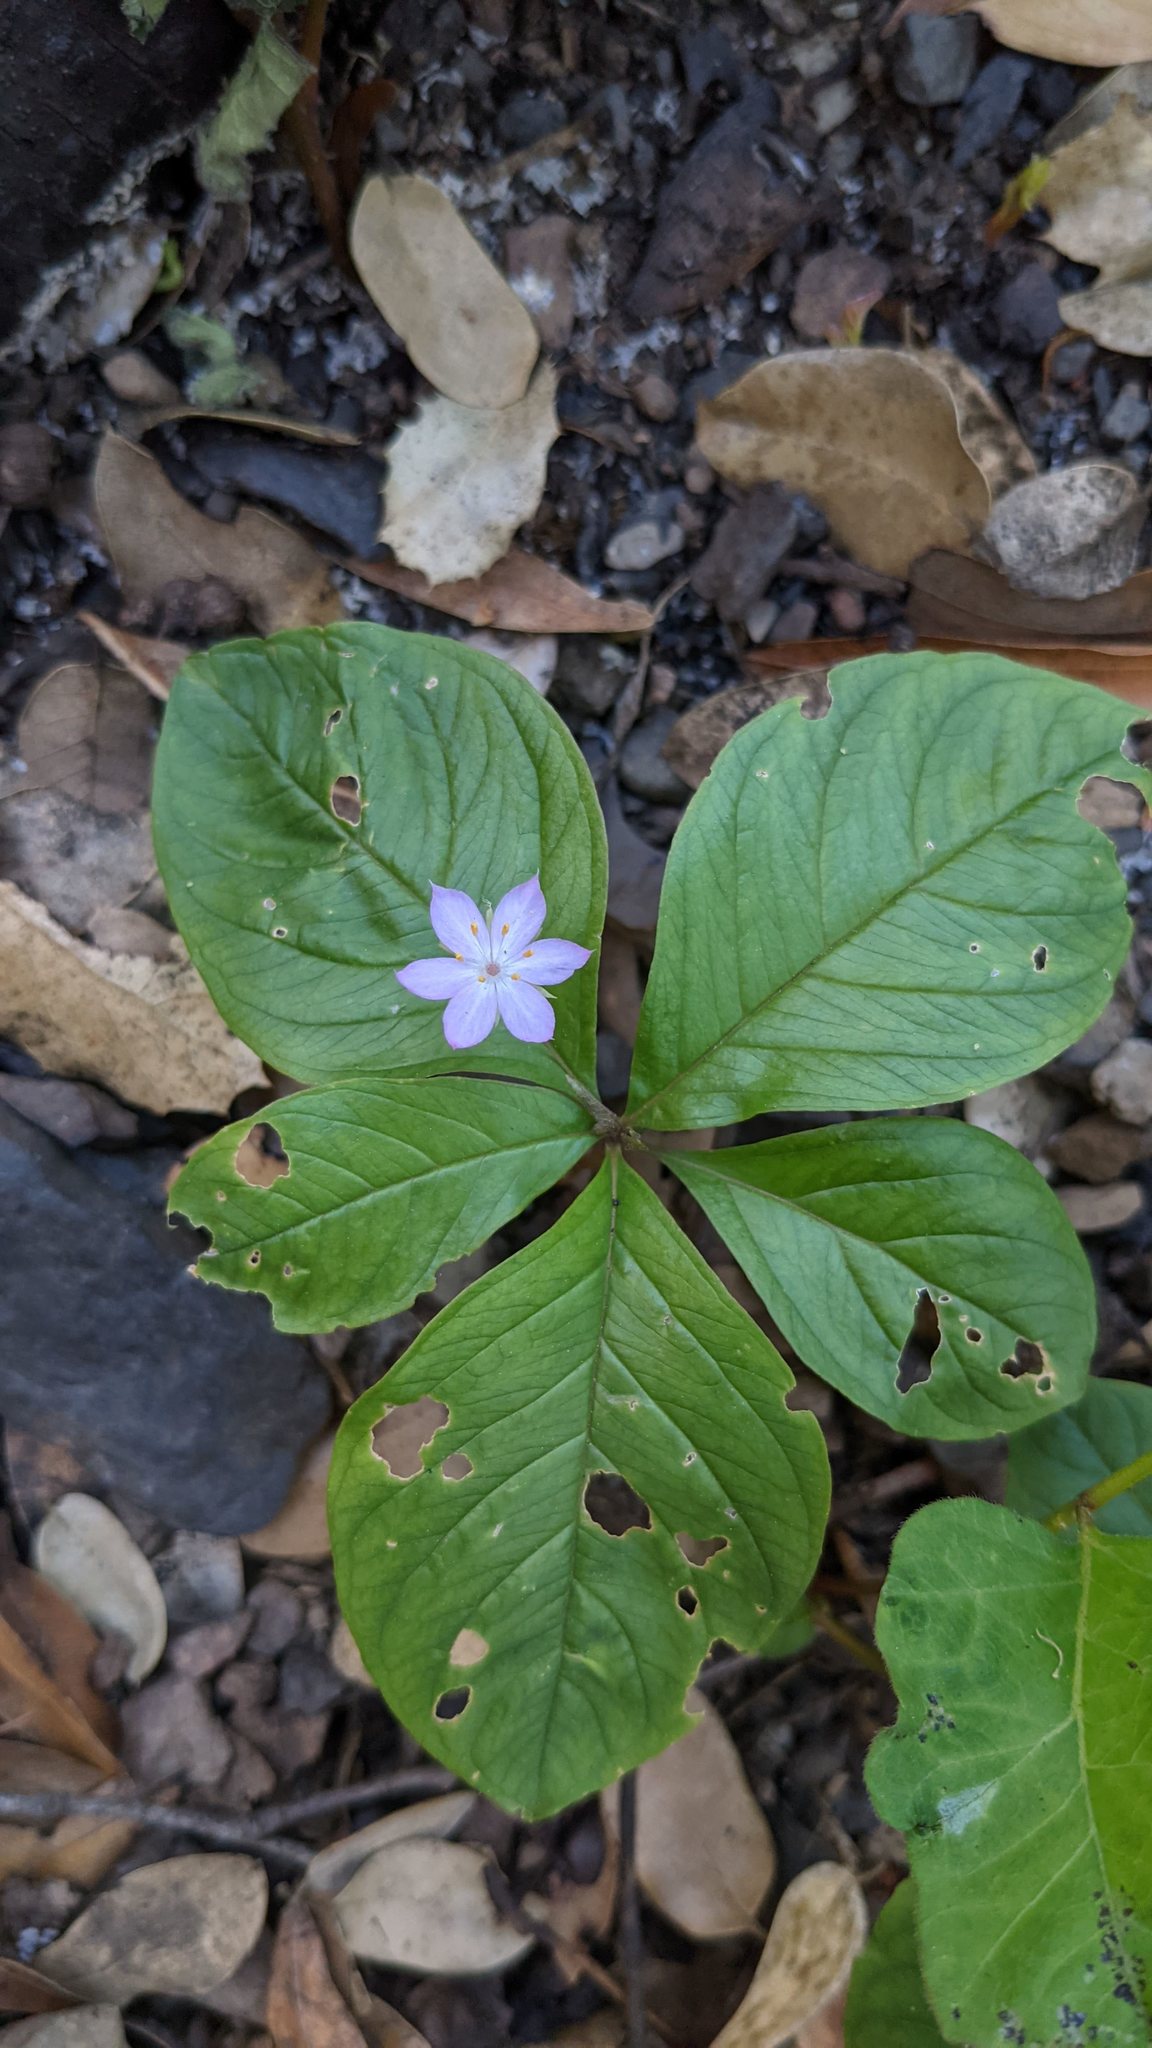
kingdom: Plantae
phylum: Tracheophyta
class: Magnoliopsida
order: Ericales
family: Primulaceae
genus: Lysimachia
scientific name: Lysimachia latifolia
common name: Pacific starflower
